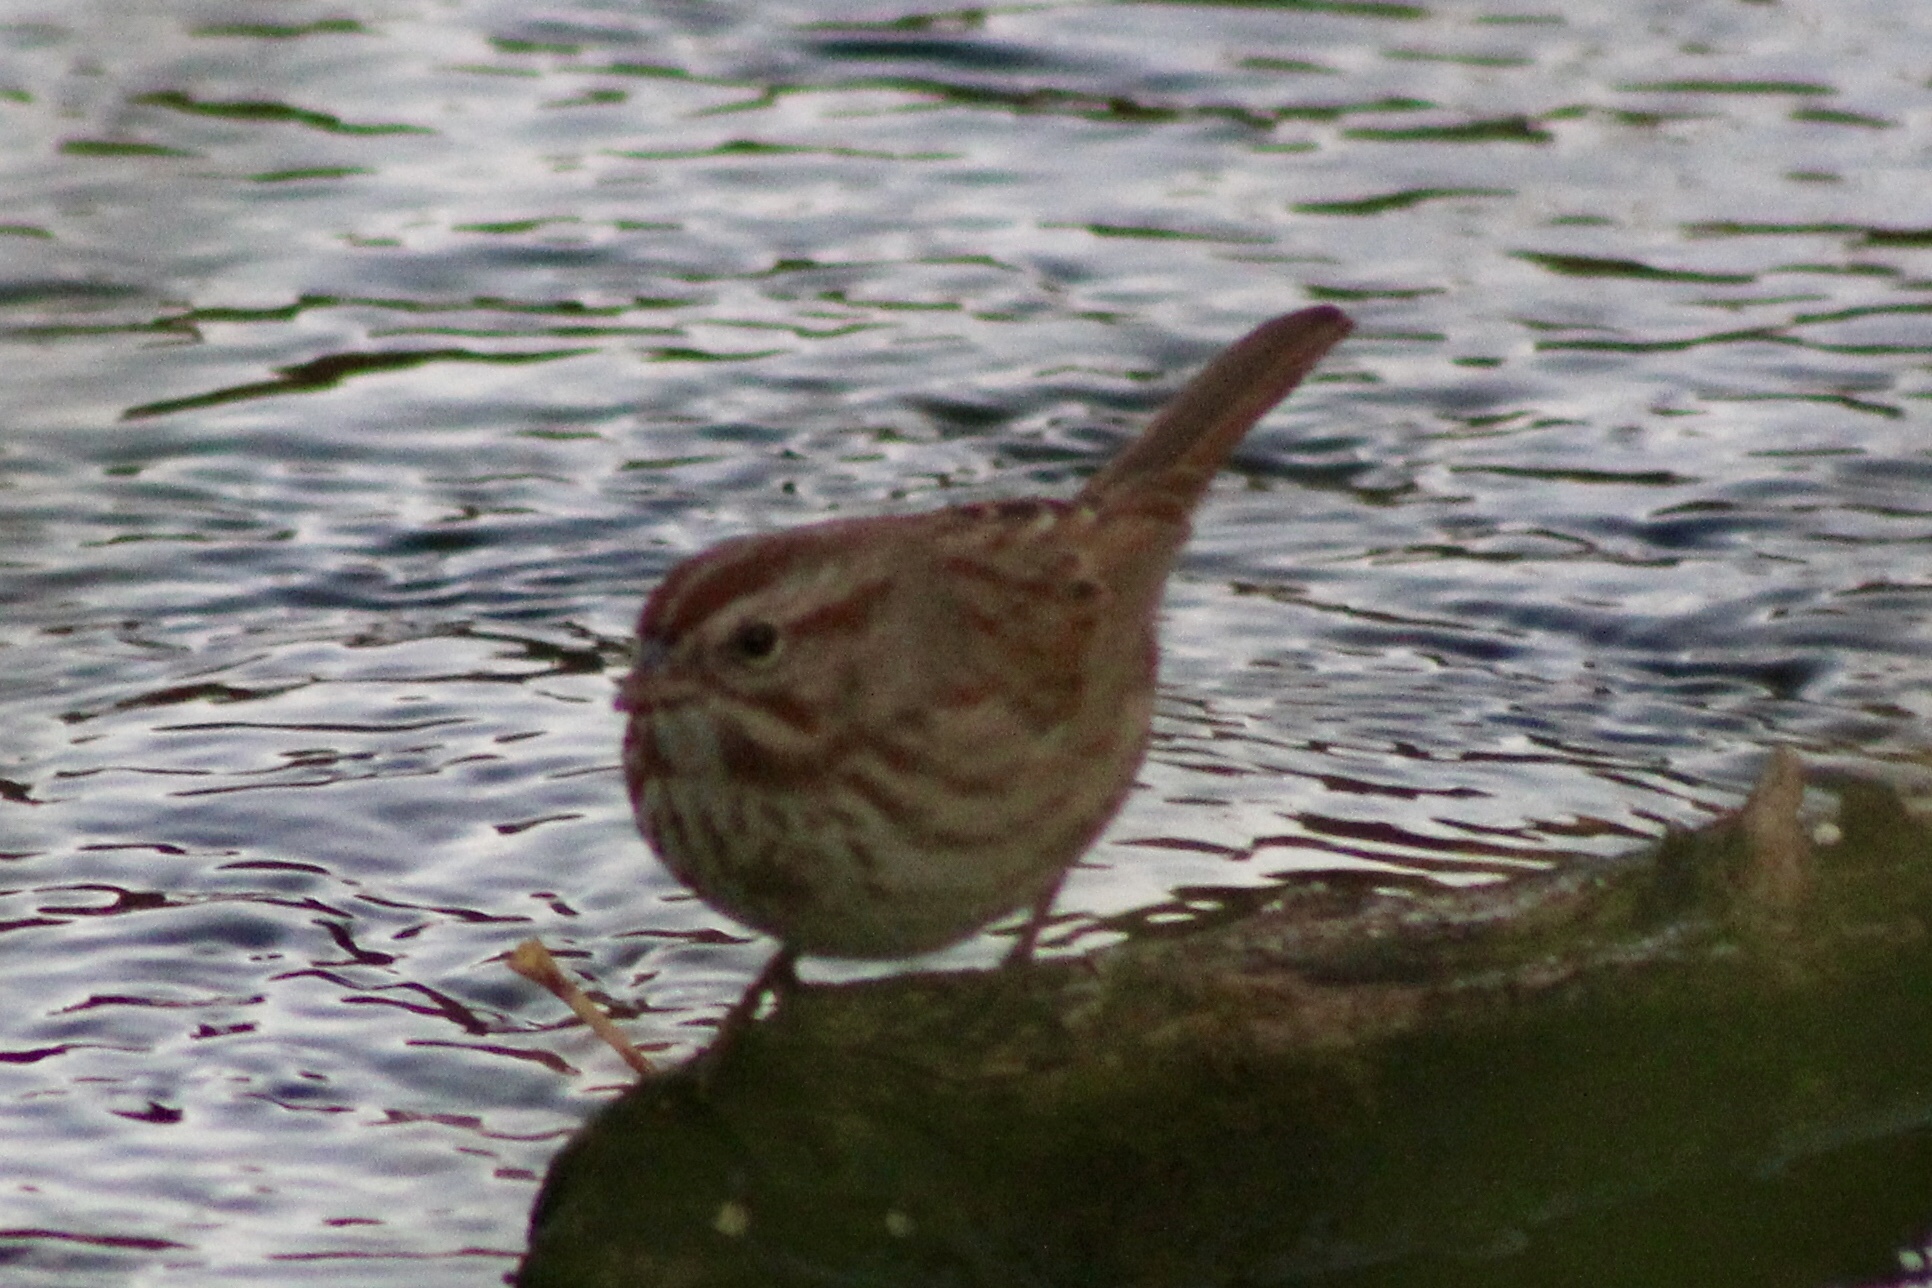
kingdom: Animalia
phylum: Chordata
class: Aves
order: Passeriformes
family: Passerellidae
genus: Melospiza
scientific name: Melospiza melodia
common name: Song sparrow
